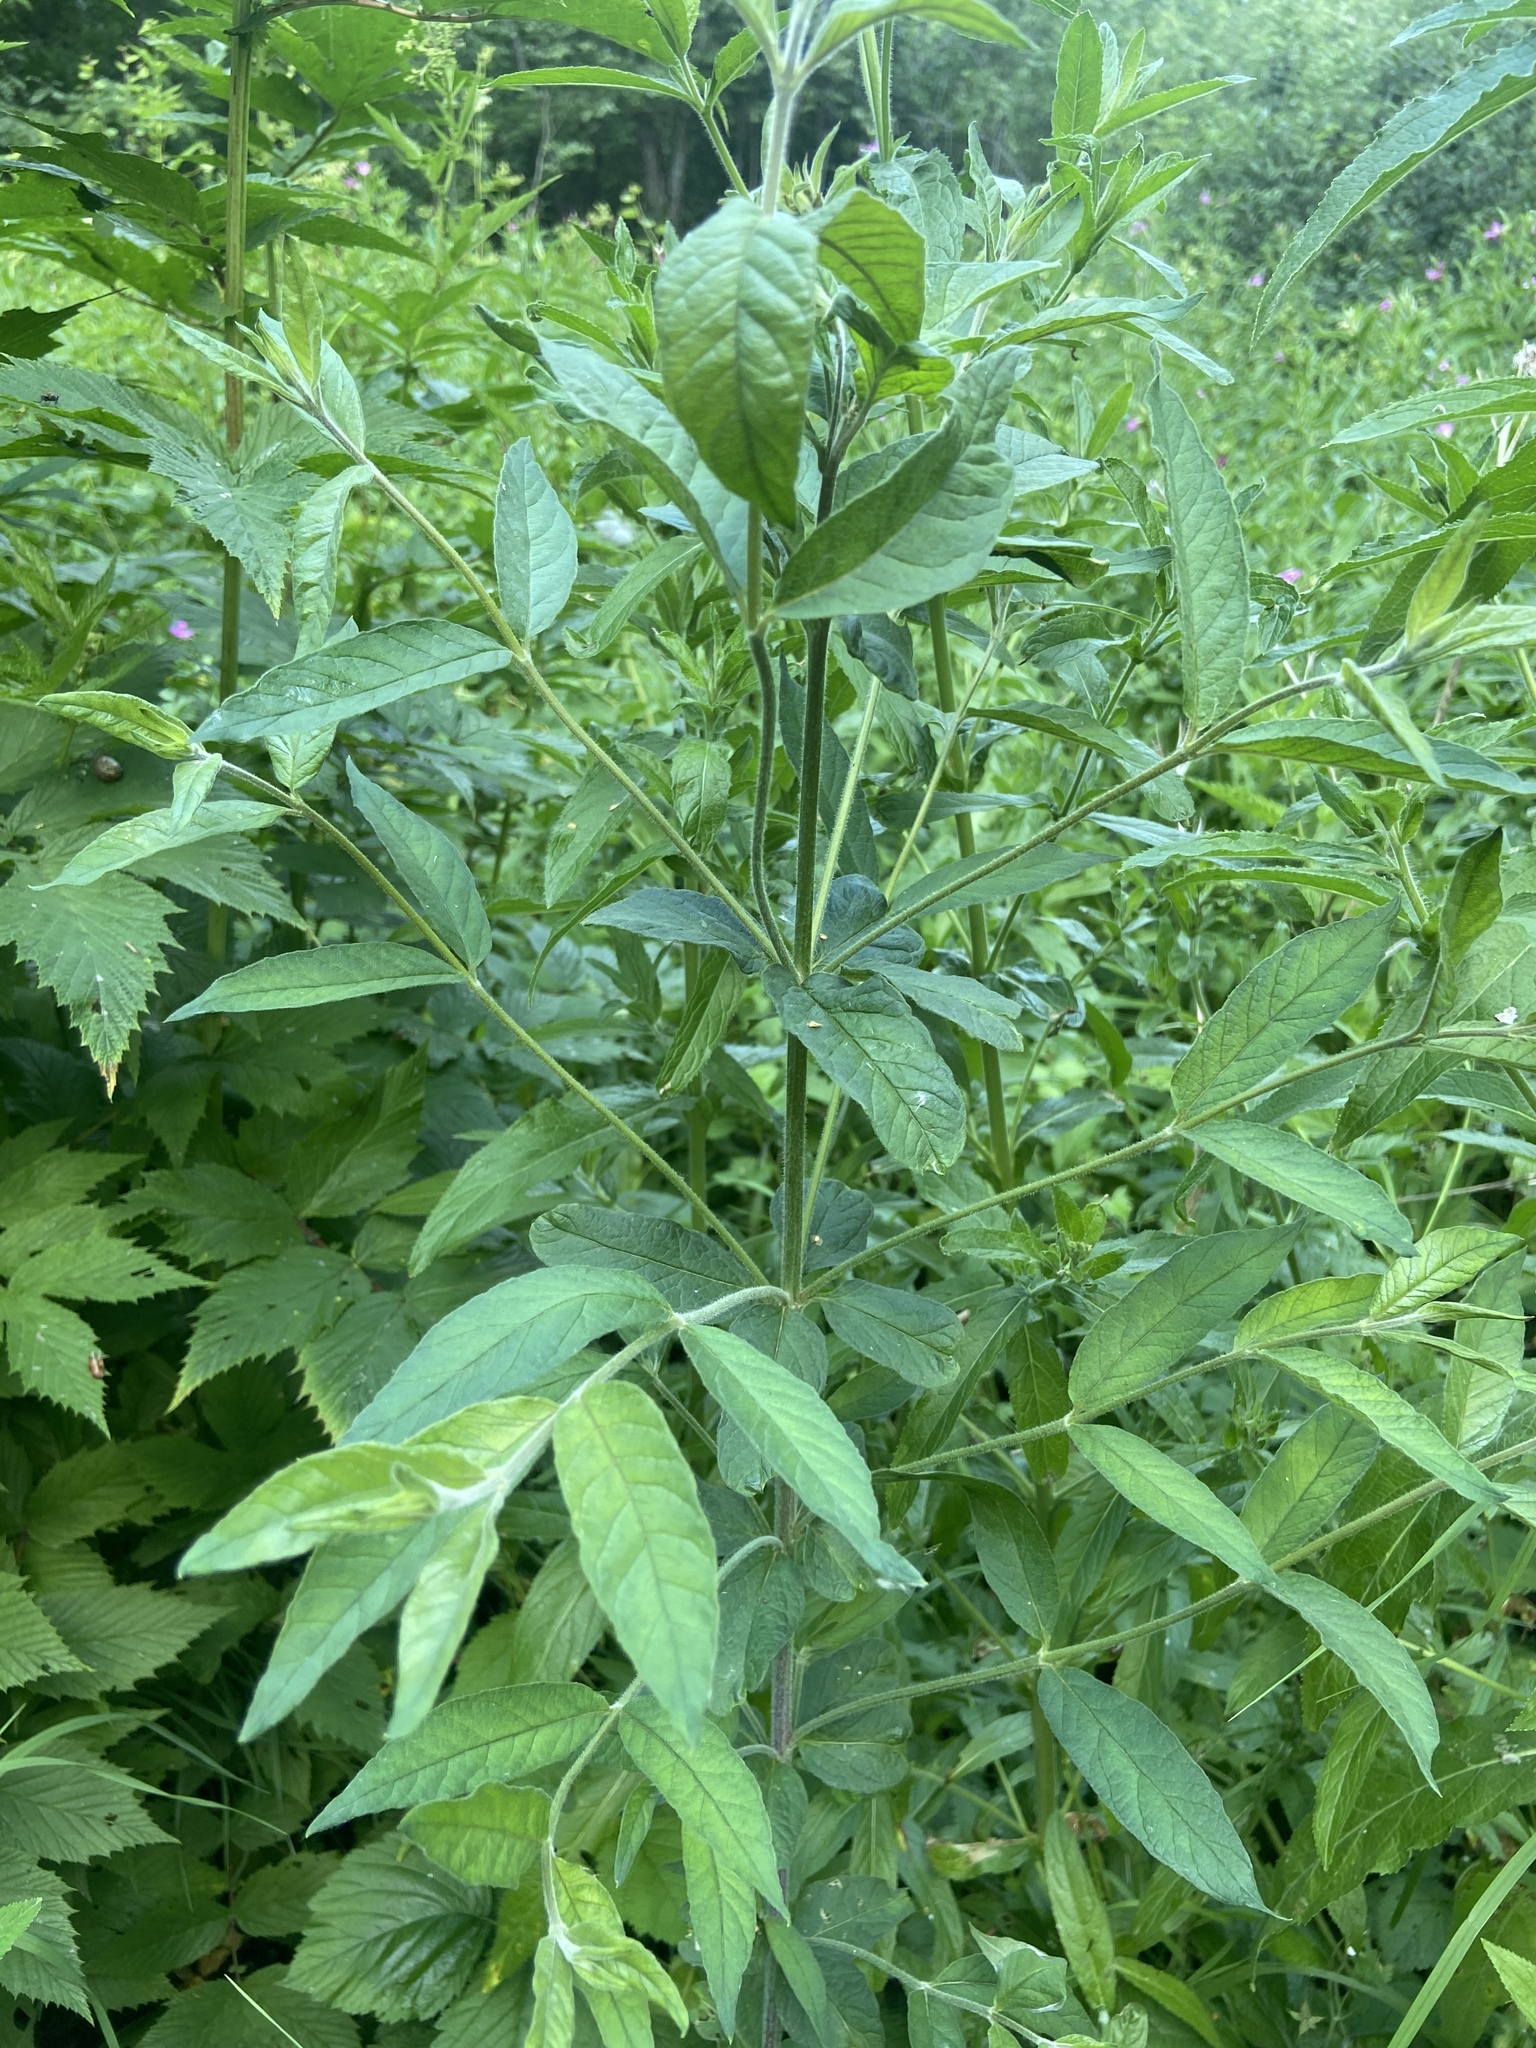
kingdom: Plantae
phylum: Tracheophyta
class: Magnoliopsida
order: Ericales
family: Primulaceae
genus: Lysimachia
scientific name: Lysimachia vulgaris
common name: Yellow loosestrife
